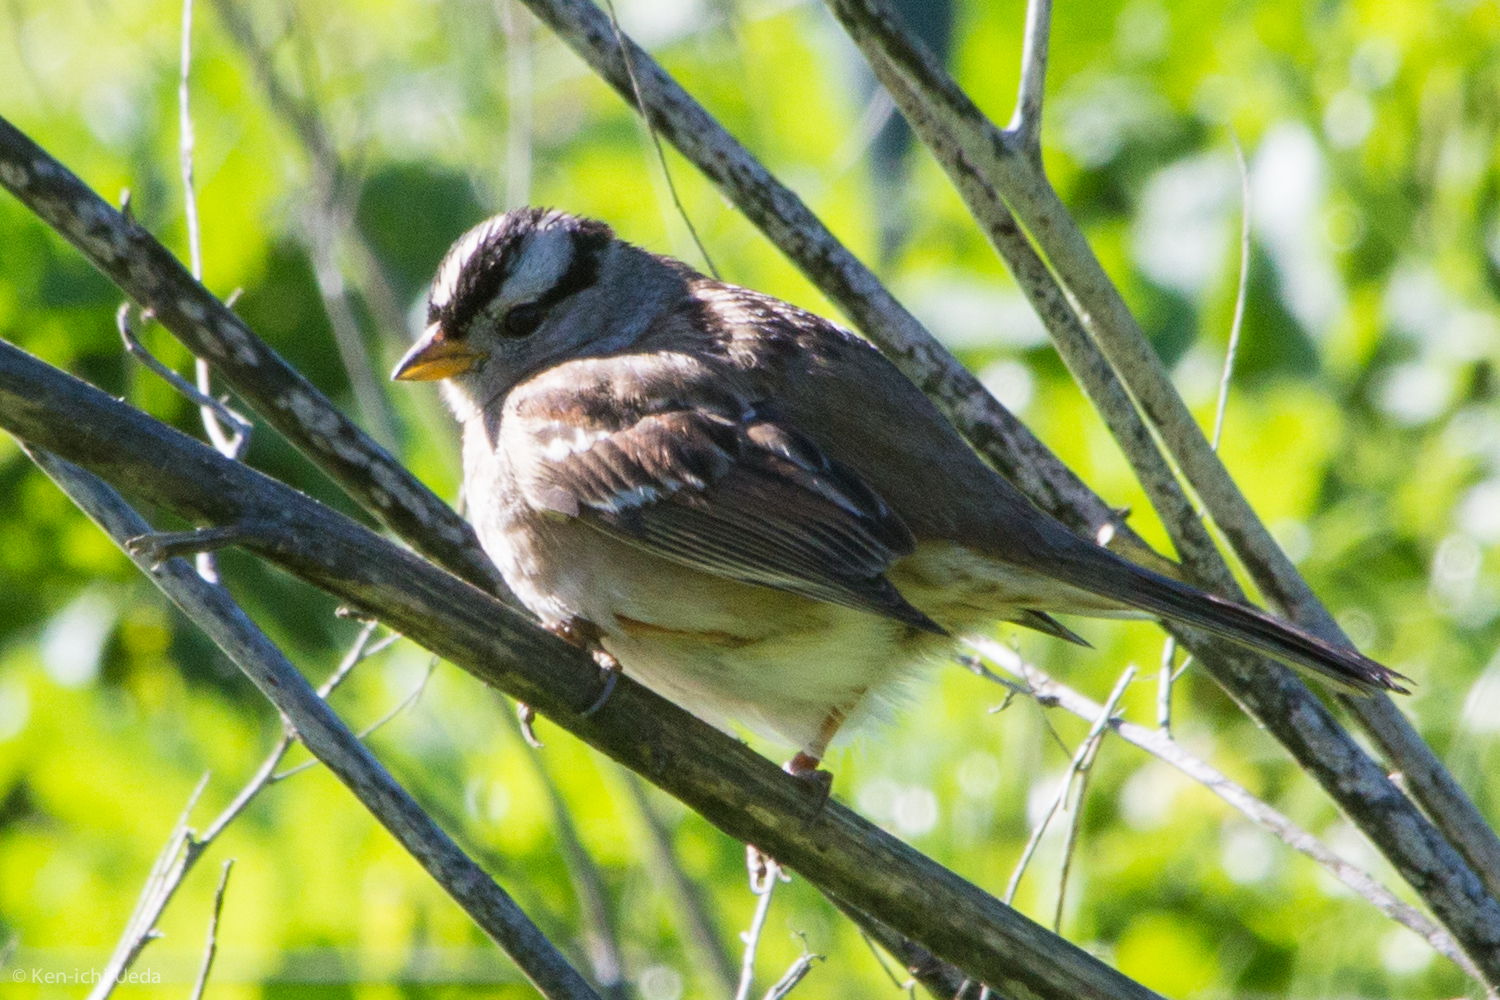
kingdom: Animalia
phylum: Chordata
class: Aves
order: Passeriformes
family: Passerellidae
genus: Zonotrichia
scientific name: Zonotrichia leucophrys
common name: White-crowned sparrow
